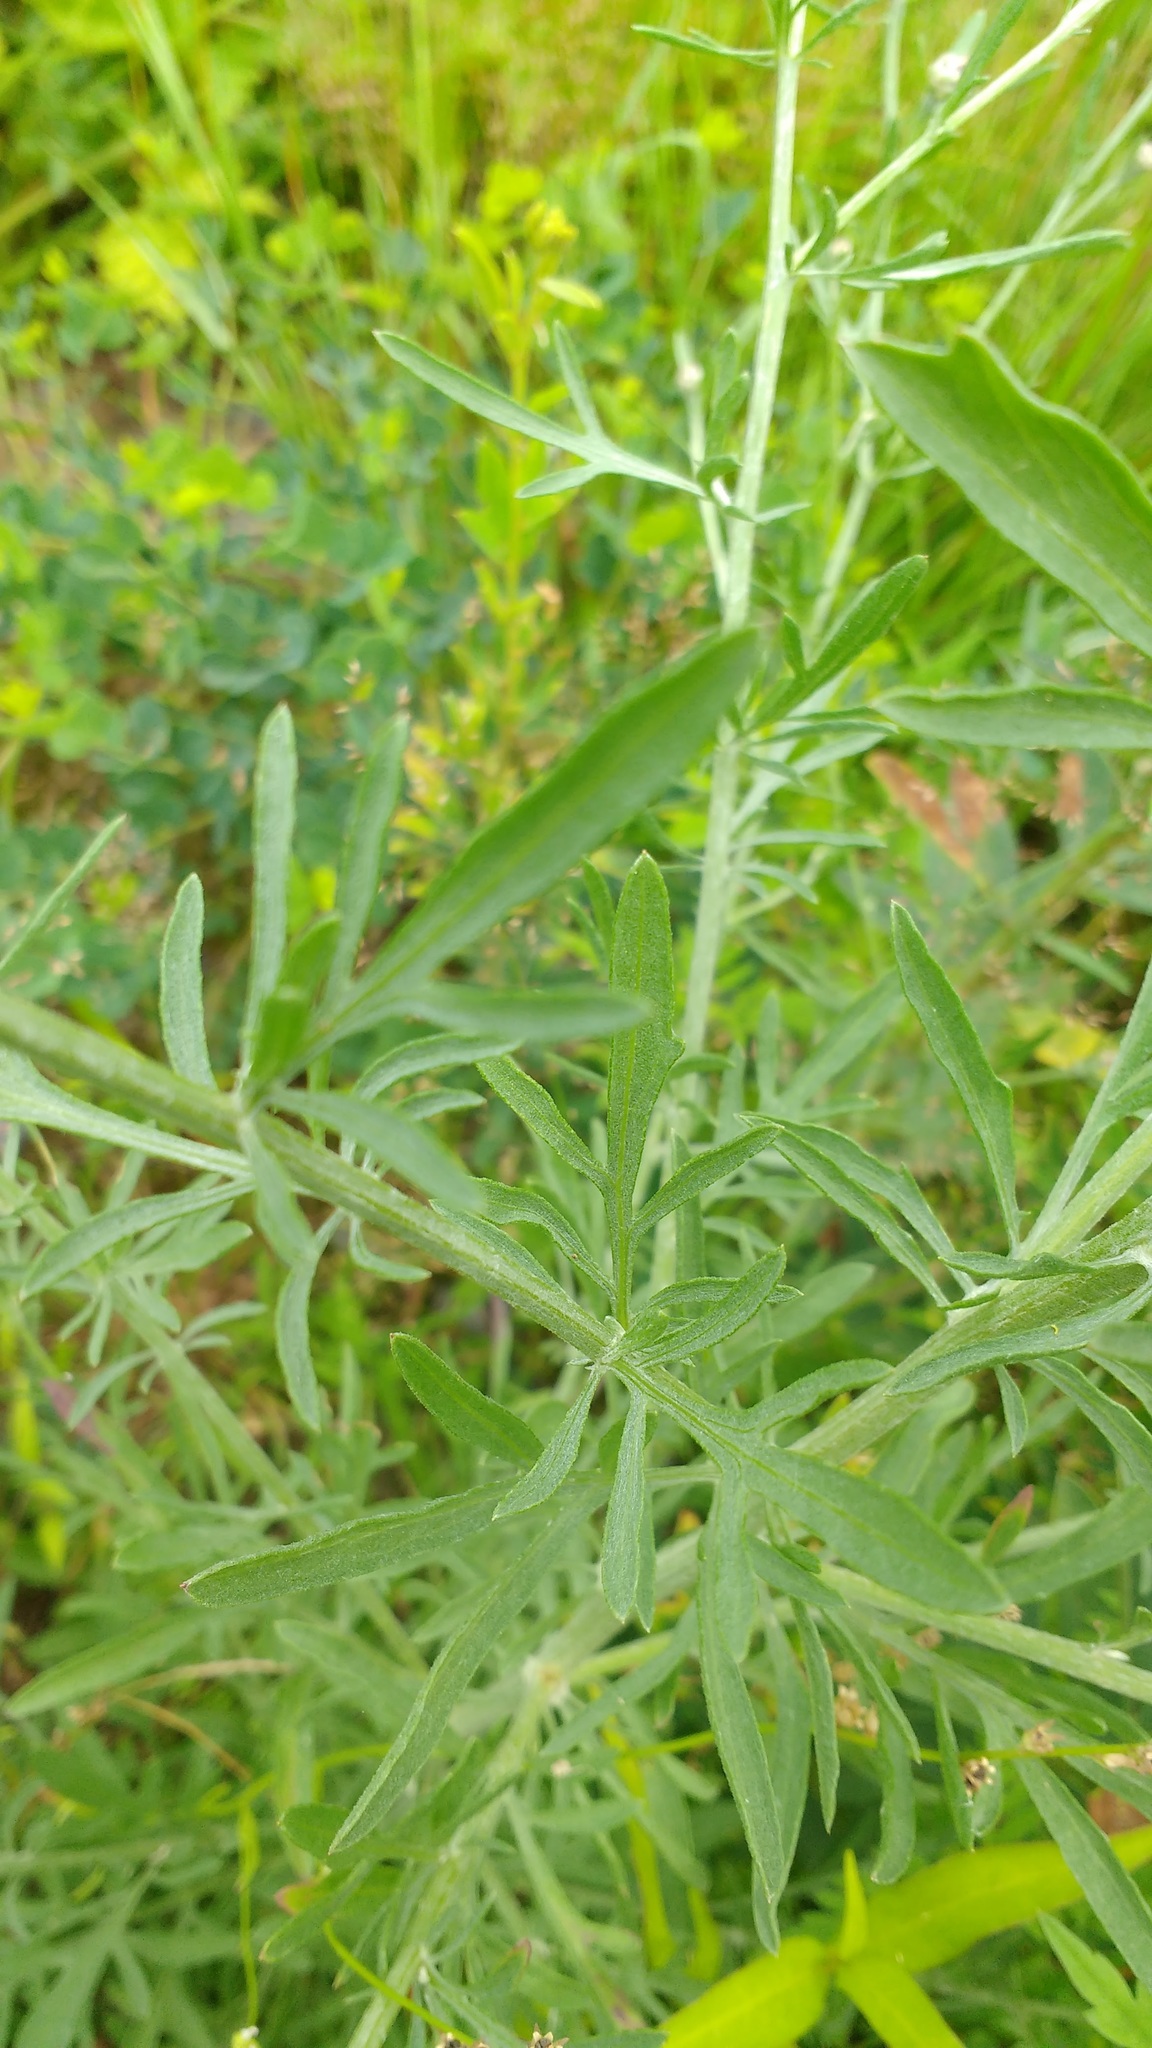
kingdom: Plantae
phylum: Tracheophyta
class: Magnoliopsida
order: Asterales
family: Asteraceae
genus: Centaurea
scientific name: Centaurea stoebe
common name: Spotted knapweed
